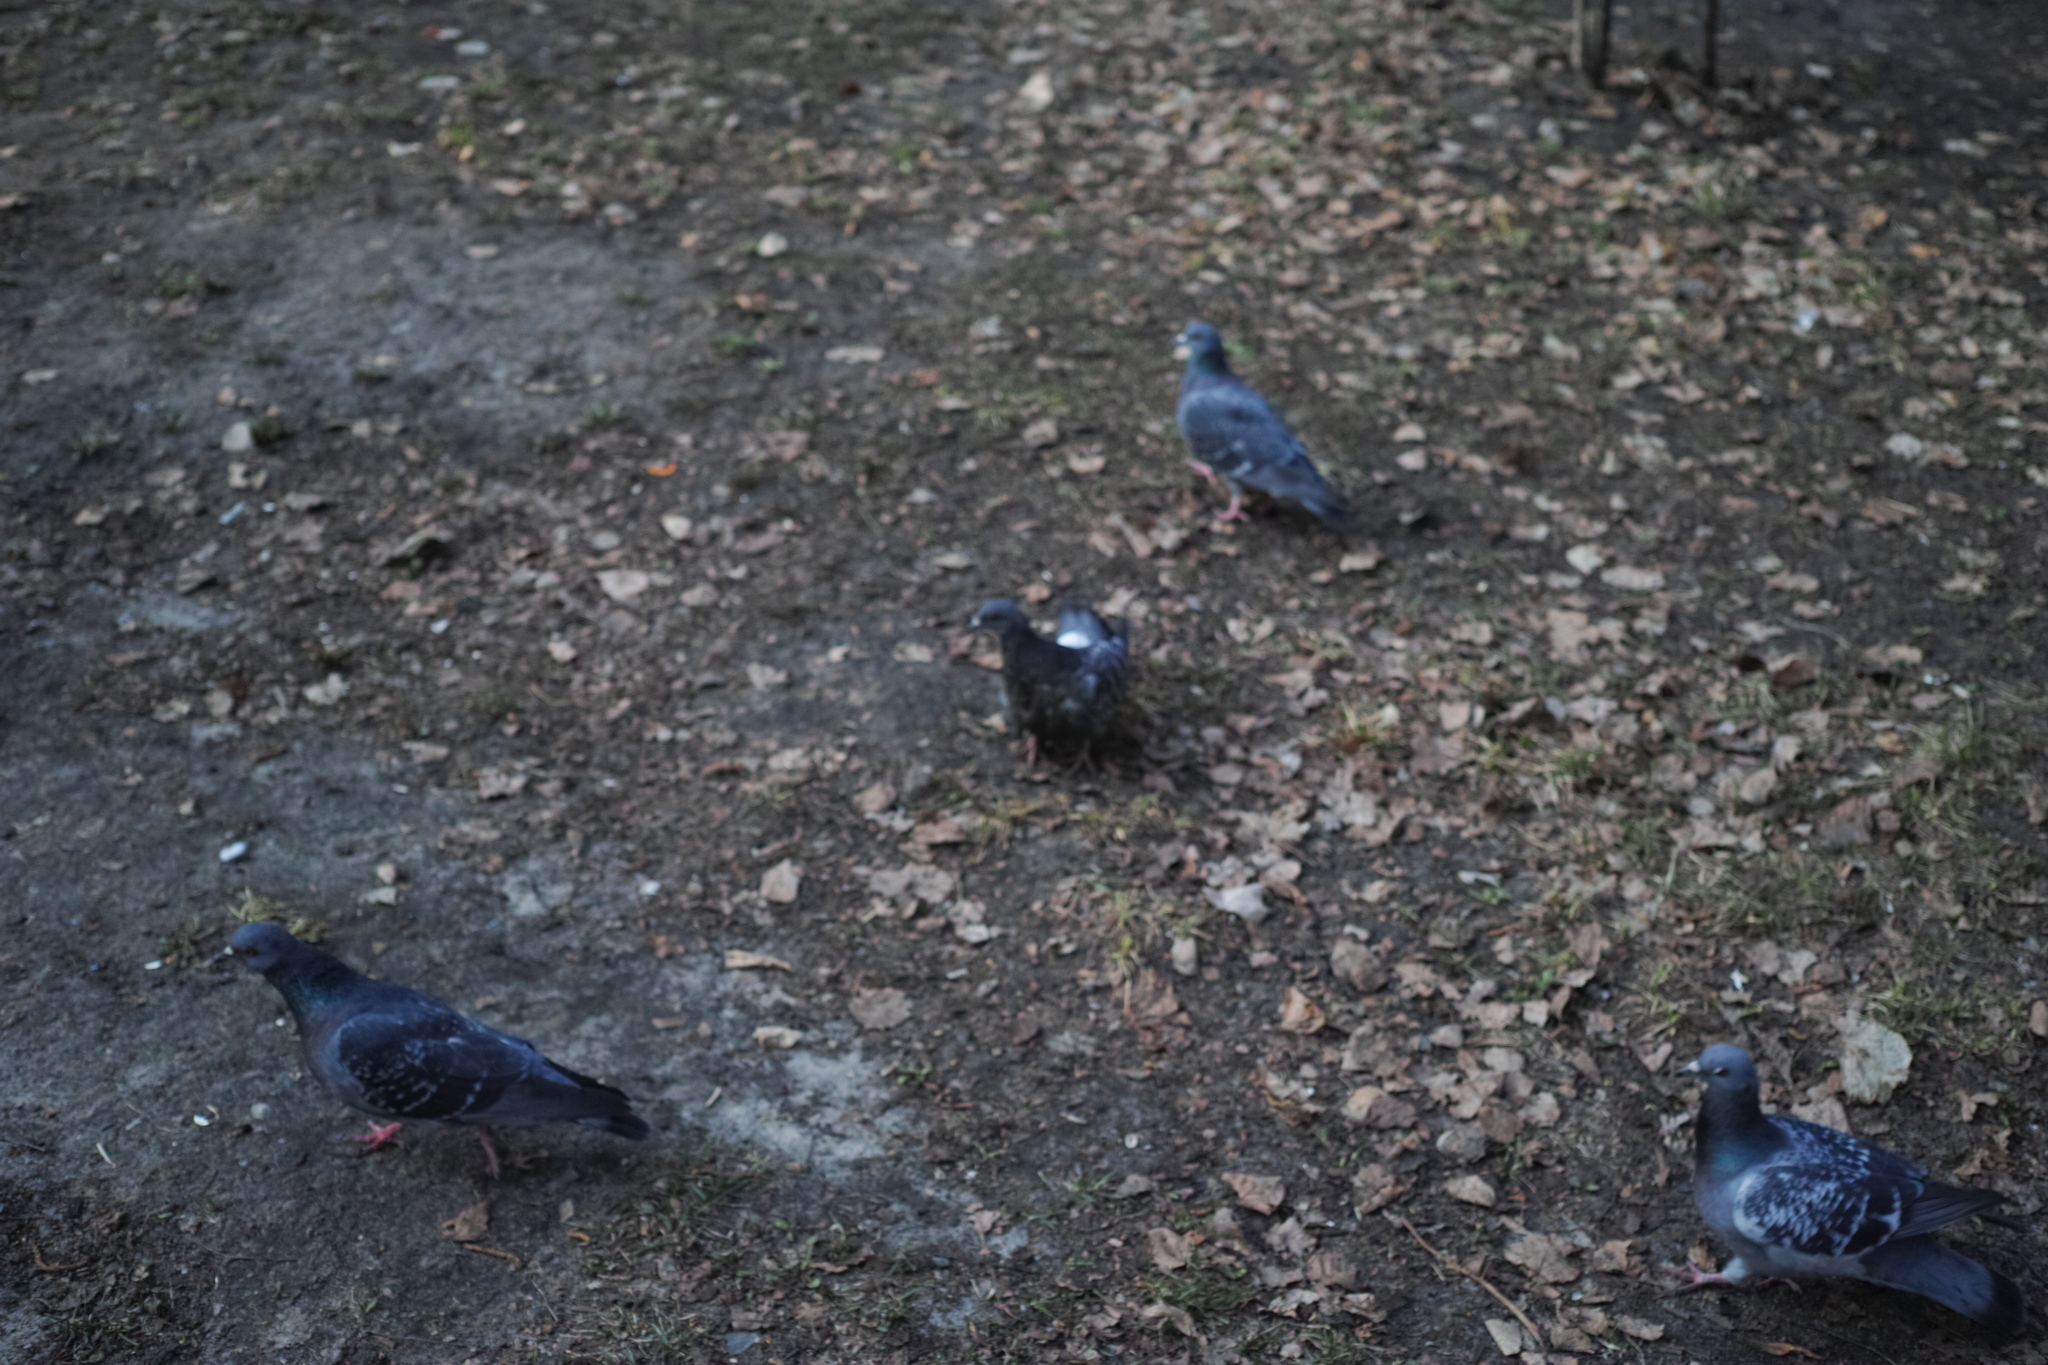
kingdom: Animalia
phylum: Chordata
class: Aves
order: Columbiformes
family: Columbidae
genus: Columba
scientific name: Columba livia
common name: Rock pigeon
